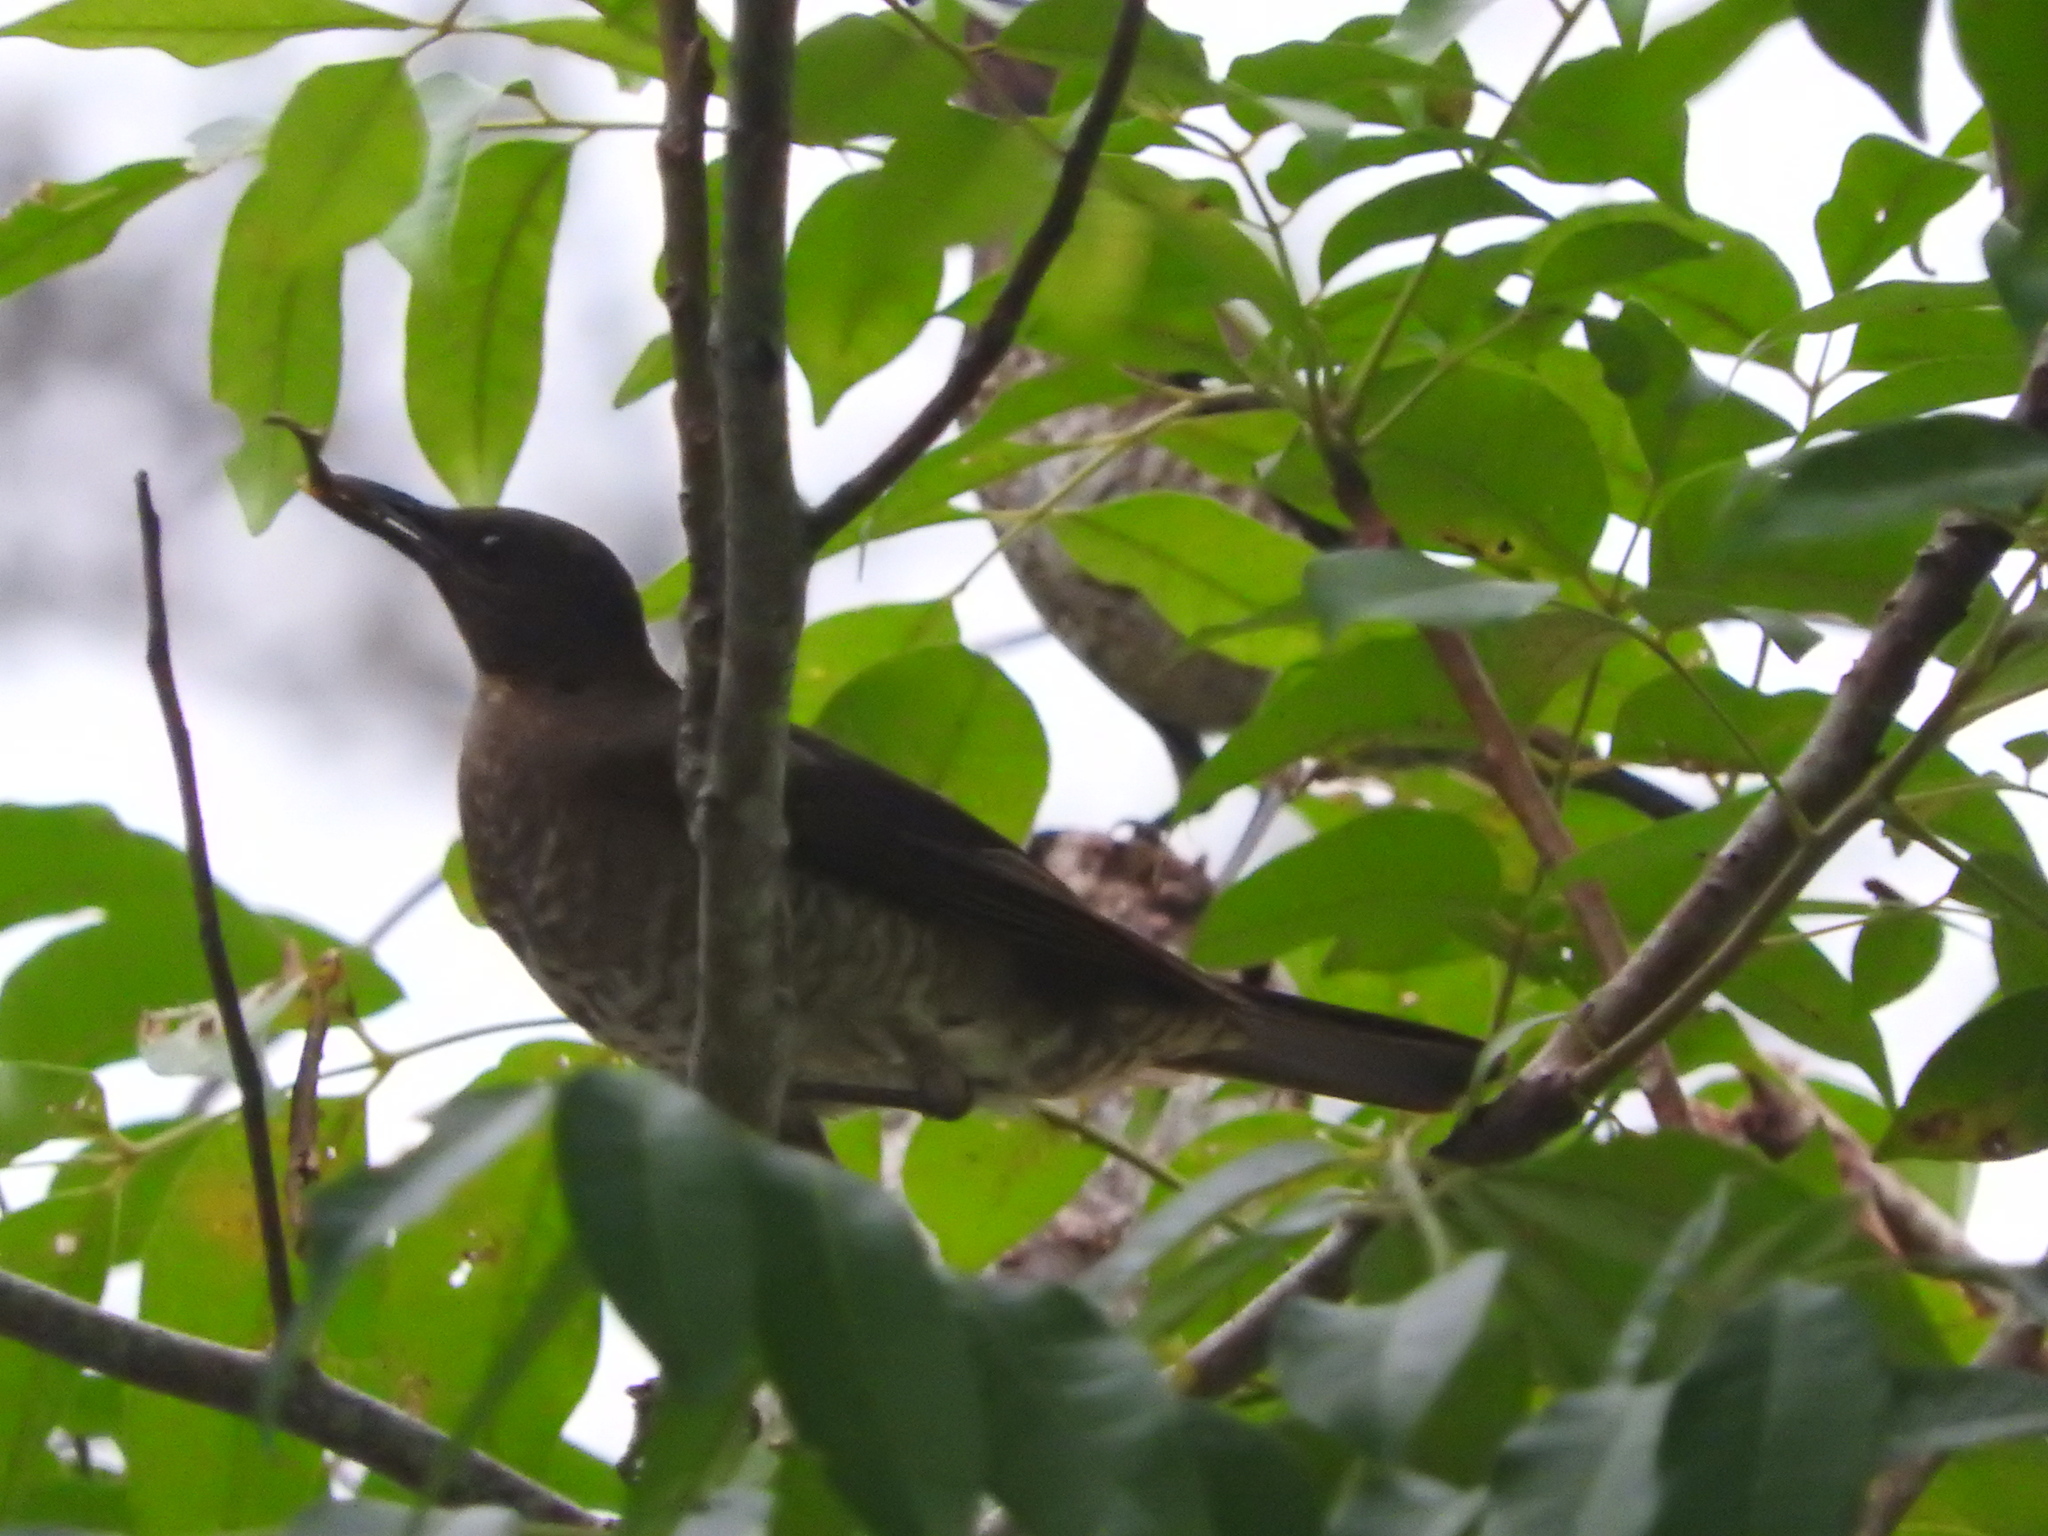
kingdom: Animalia
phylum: Chordata
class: Aves
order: Passeriformes
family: Turdidae
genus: Turdus
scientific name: Turdus olivaceofuscus
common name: Sao tome thrush
